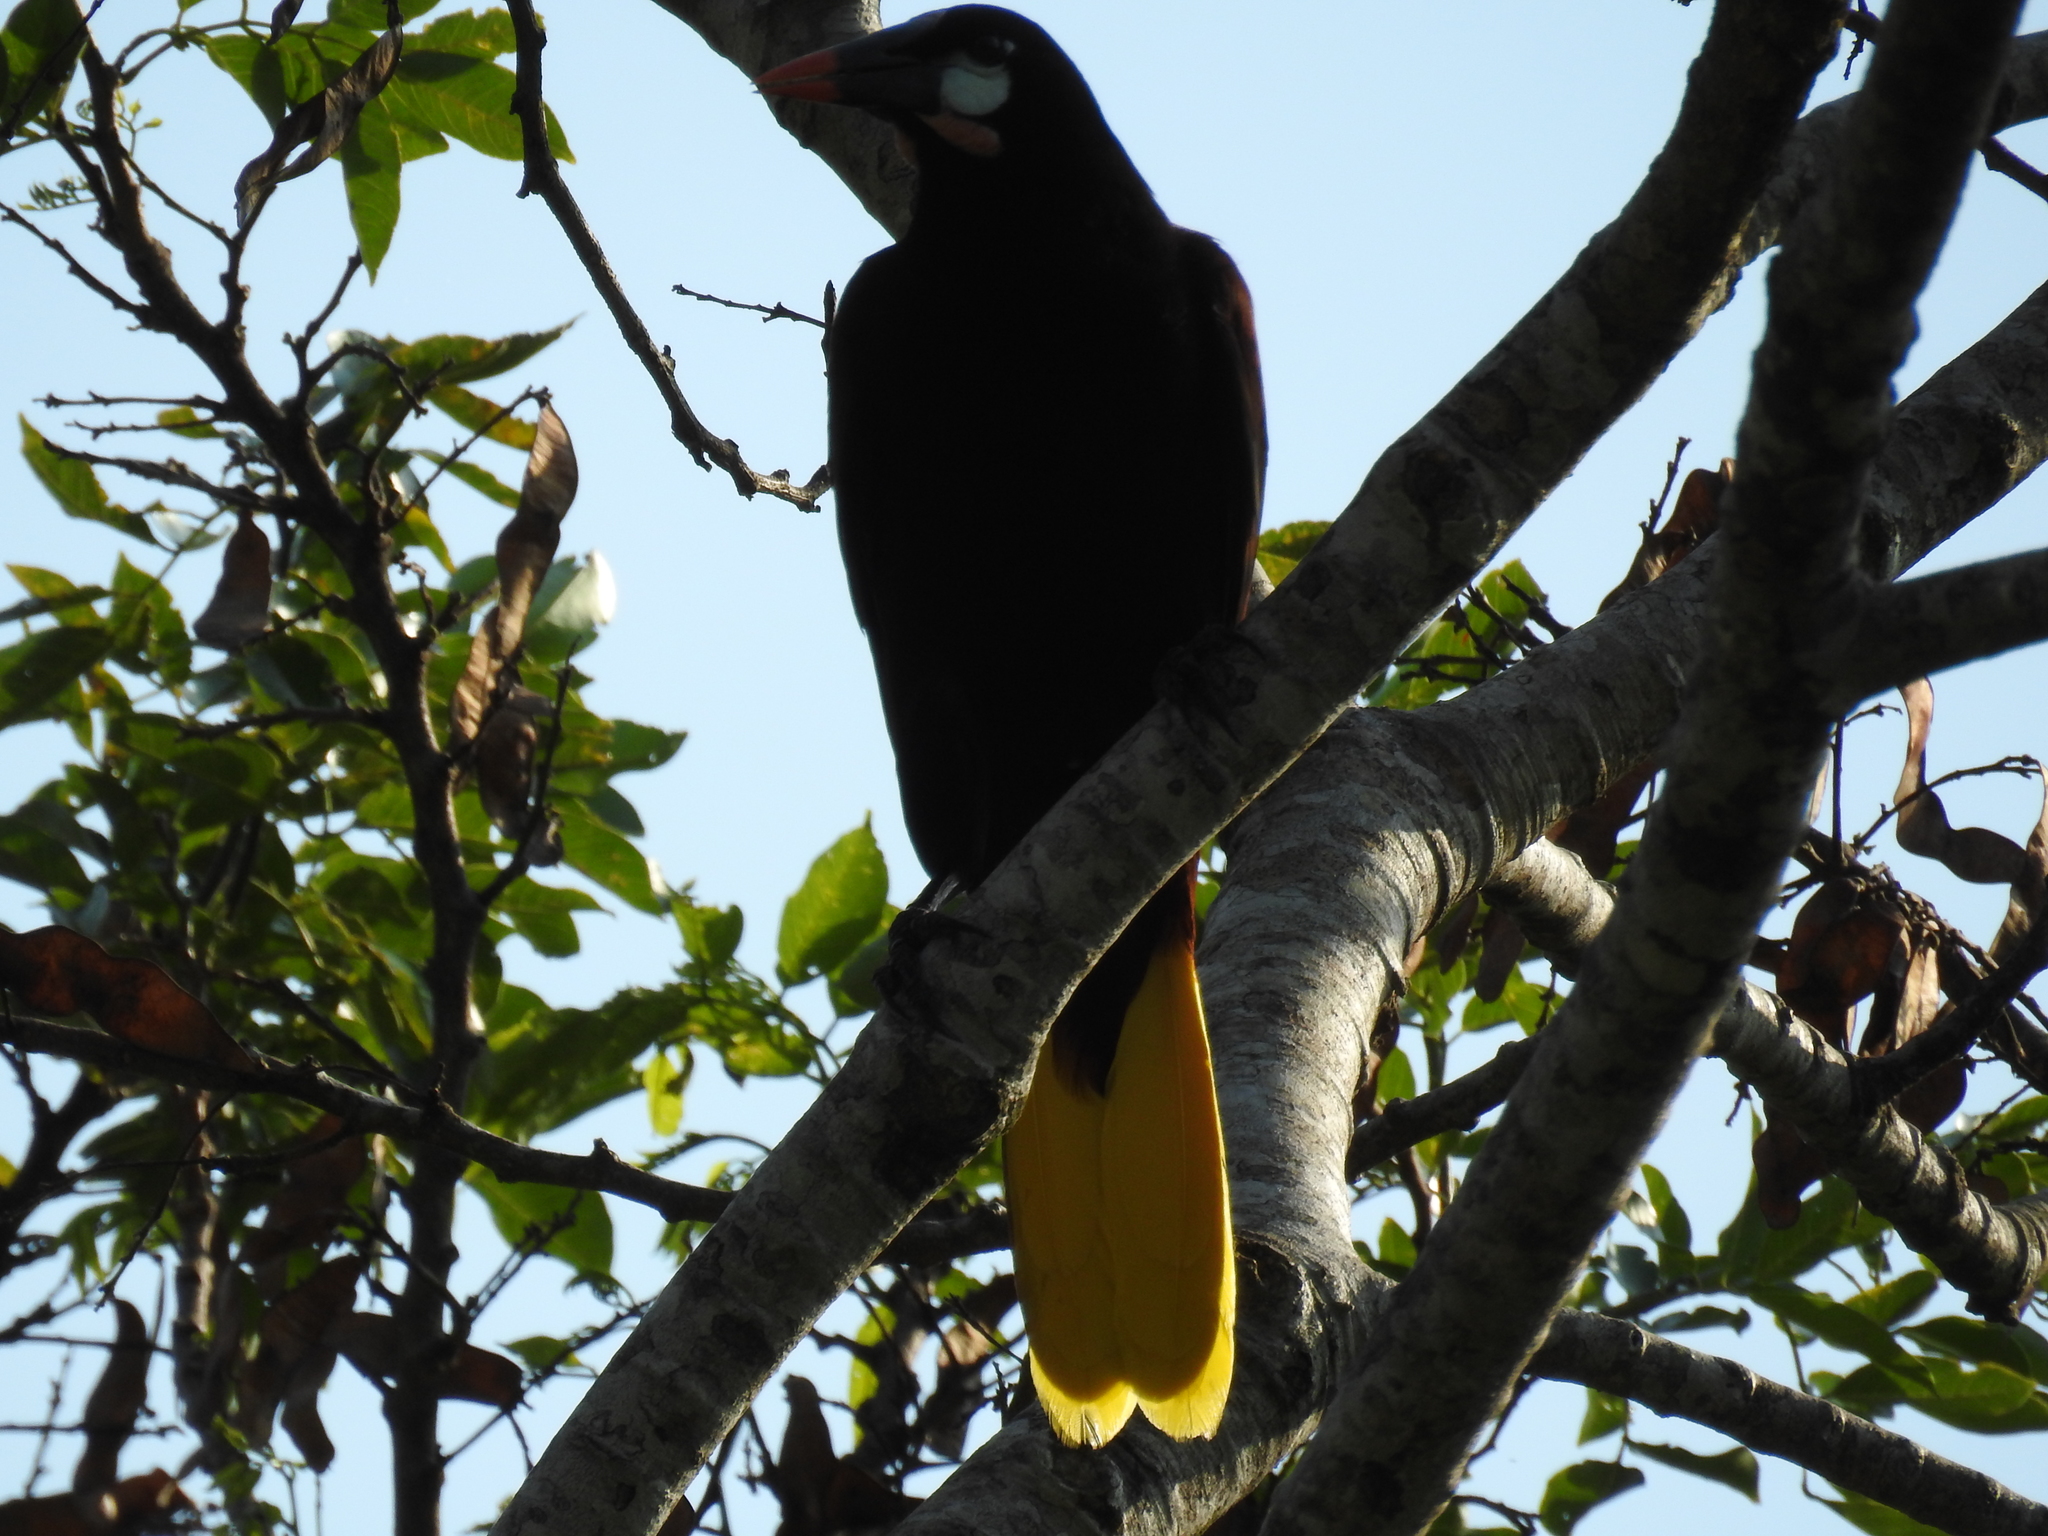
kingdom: Animalia
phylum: Chordata
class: Aves
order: Passeriformes
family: Icteridae
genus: Psarocolius
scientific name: Psarocolius montezuma
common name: Montezuma oropendola
